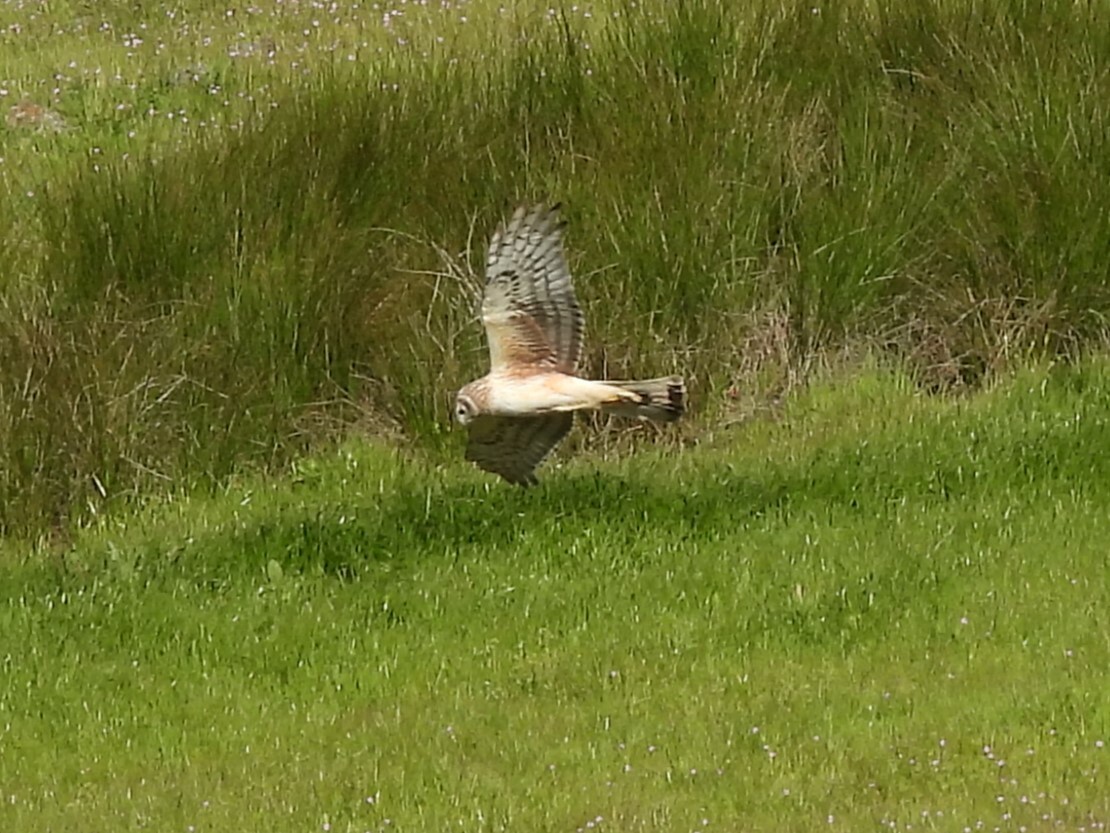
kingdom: Animalia
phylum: Chordata
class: Aves
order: Accipitriformes
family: Accipitridae
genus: Circus
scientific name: Circus cyaneus
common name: Hen harrier
